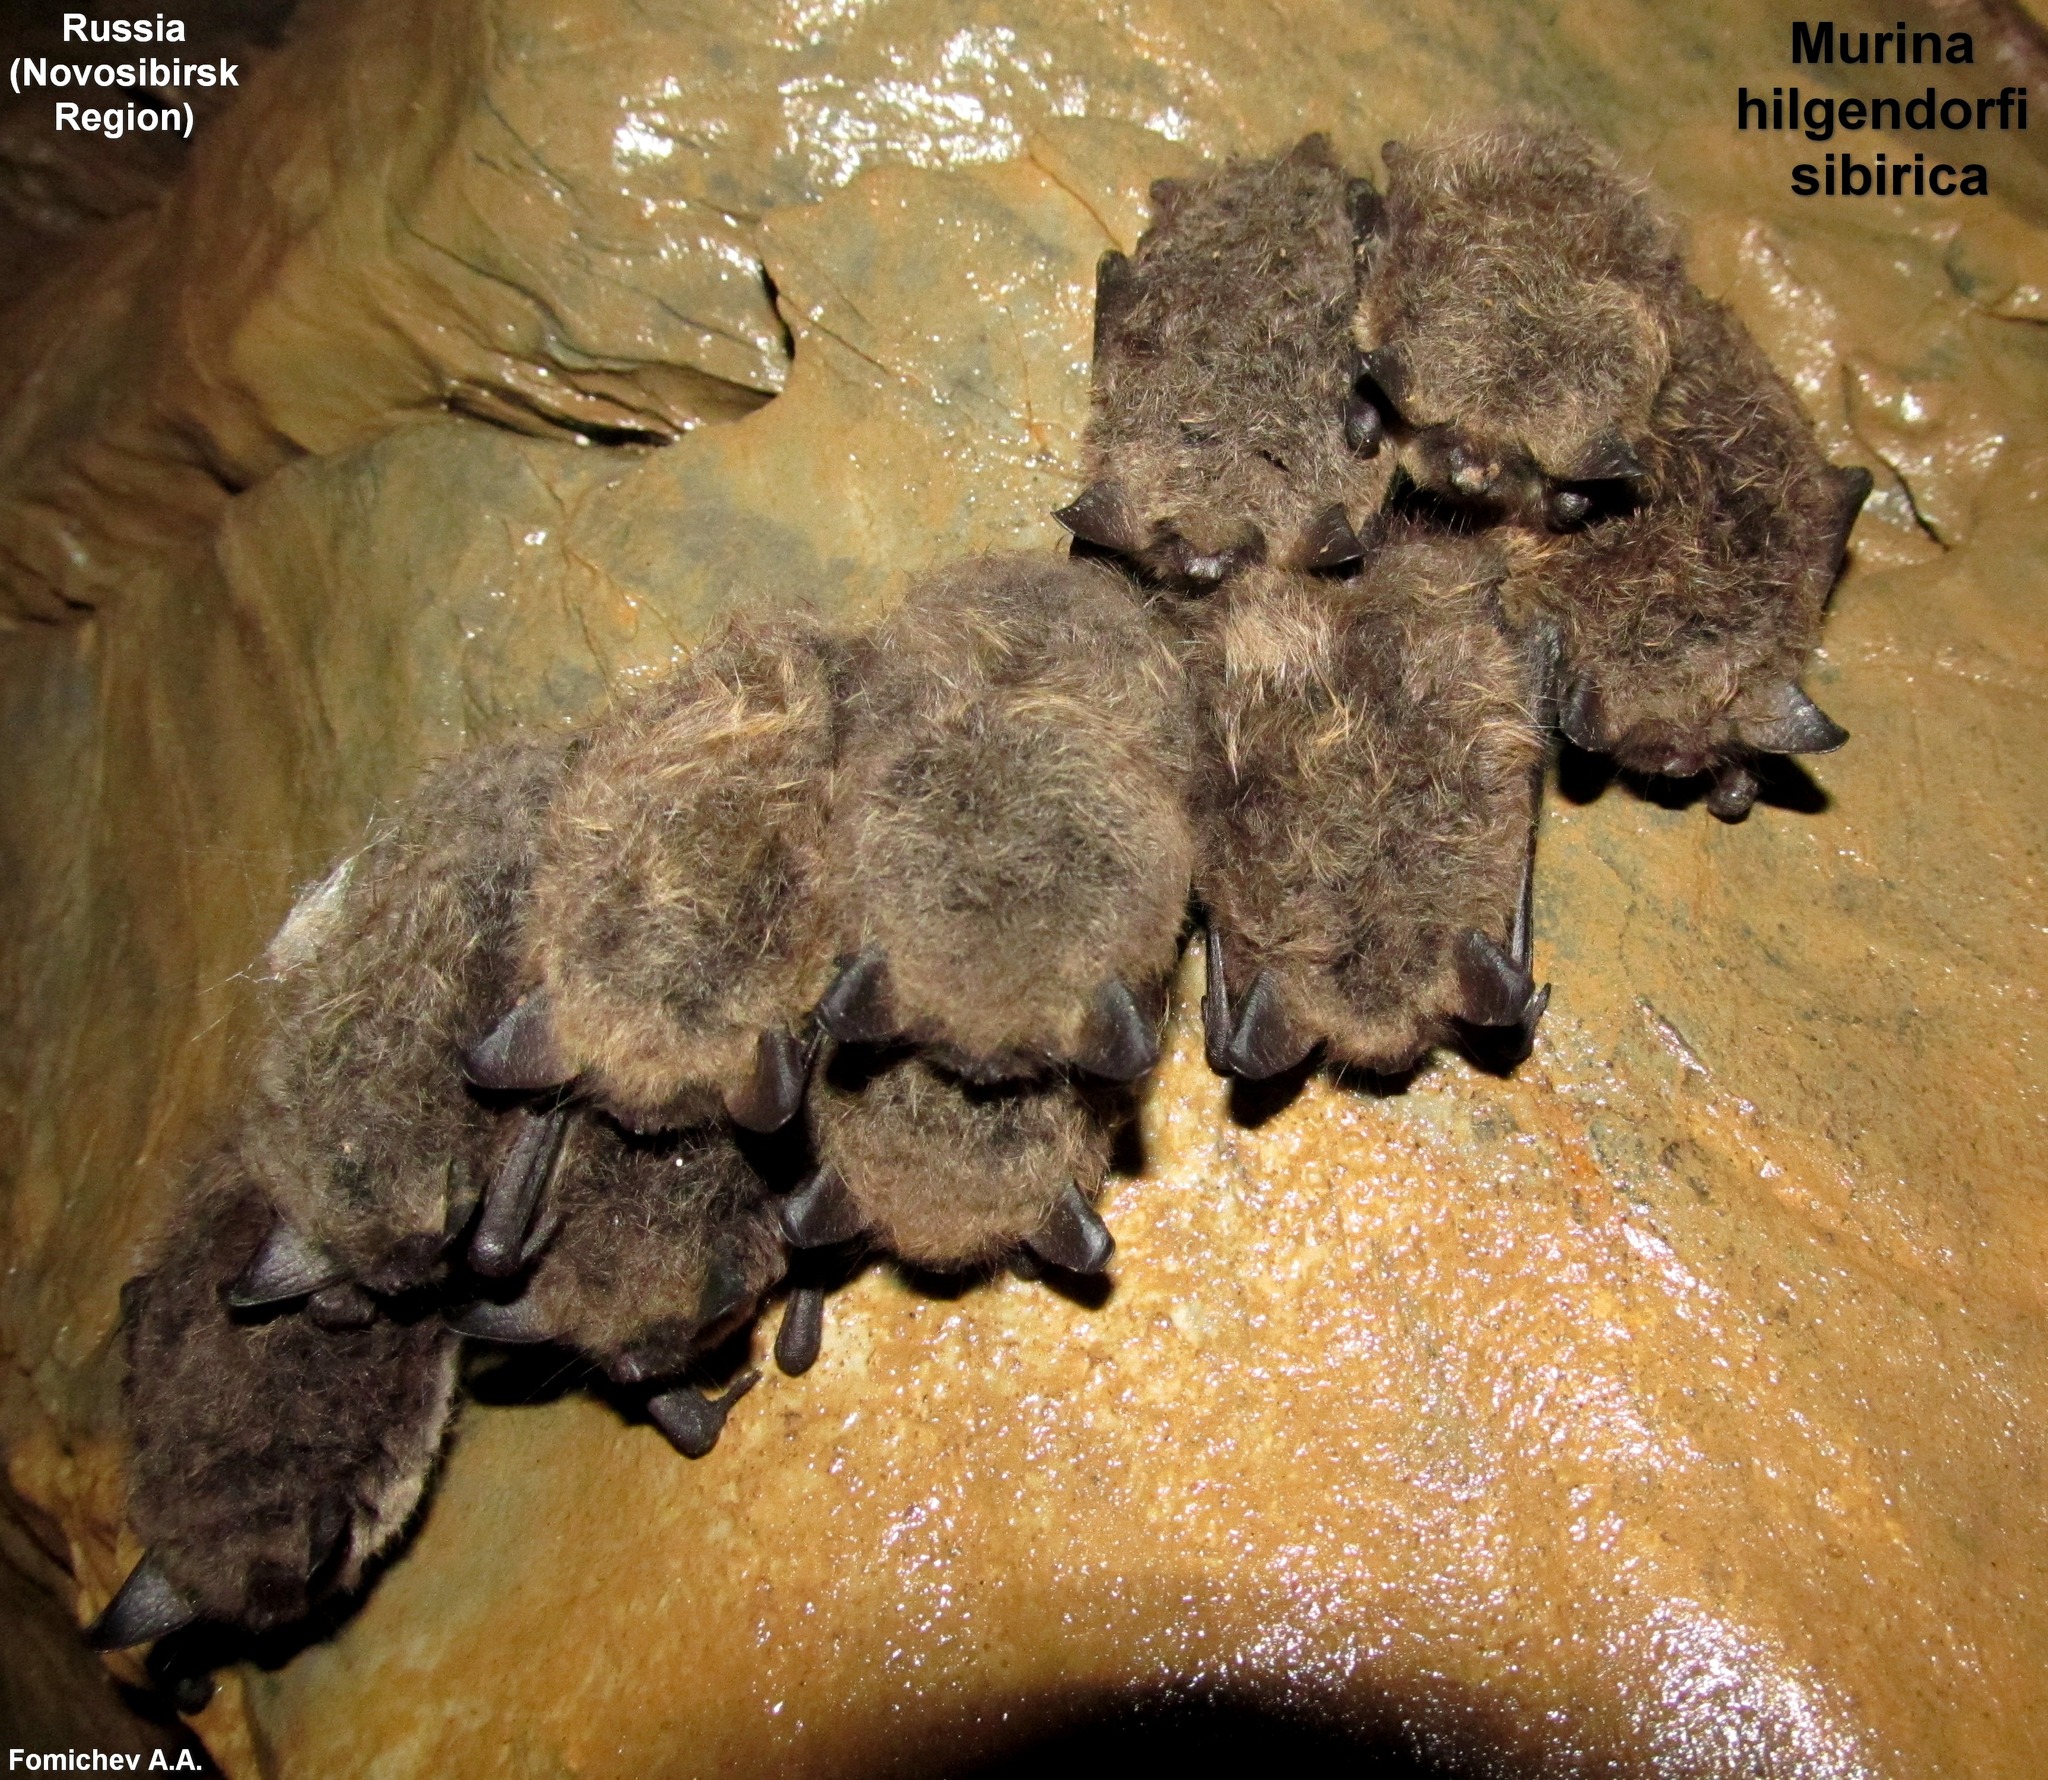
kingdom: Animalia
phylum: Chordata
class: Mammalia
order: Chiroptera
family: Vespertilionidae
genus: Murina
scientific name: Murina hilgendorfi
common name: Hilgendorf's tube-nosed bat
